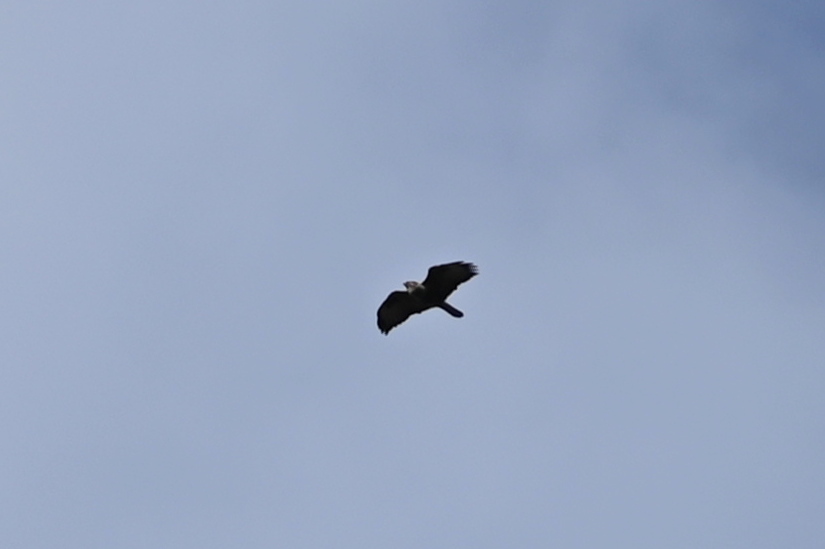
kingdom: Animalia
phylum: Chordata
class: Aves
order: Accipitriformes
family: Accipitridae
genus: Buteo
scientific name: Buteo buteo
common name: Common buzzard
